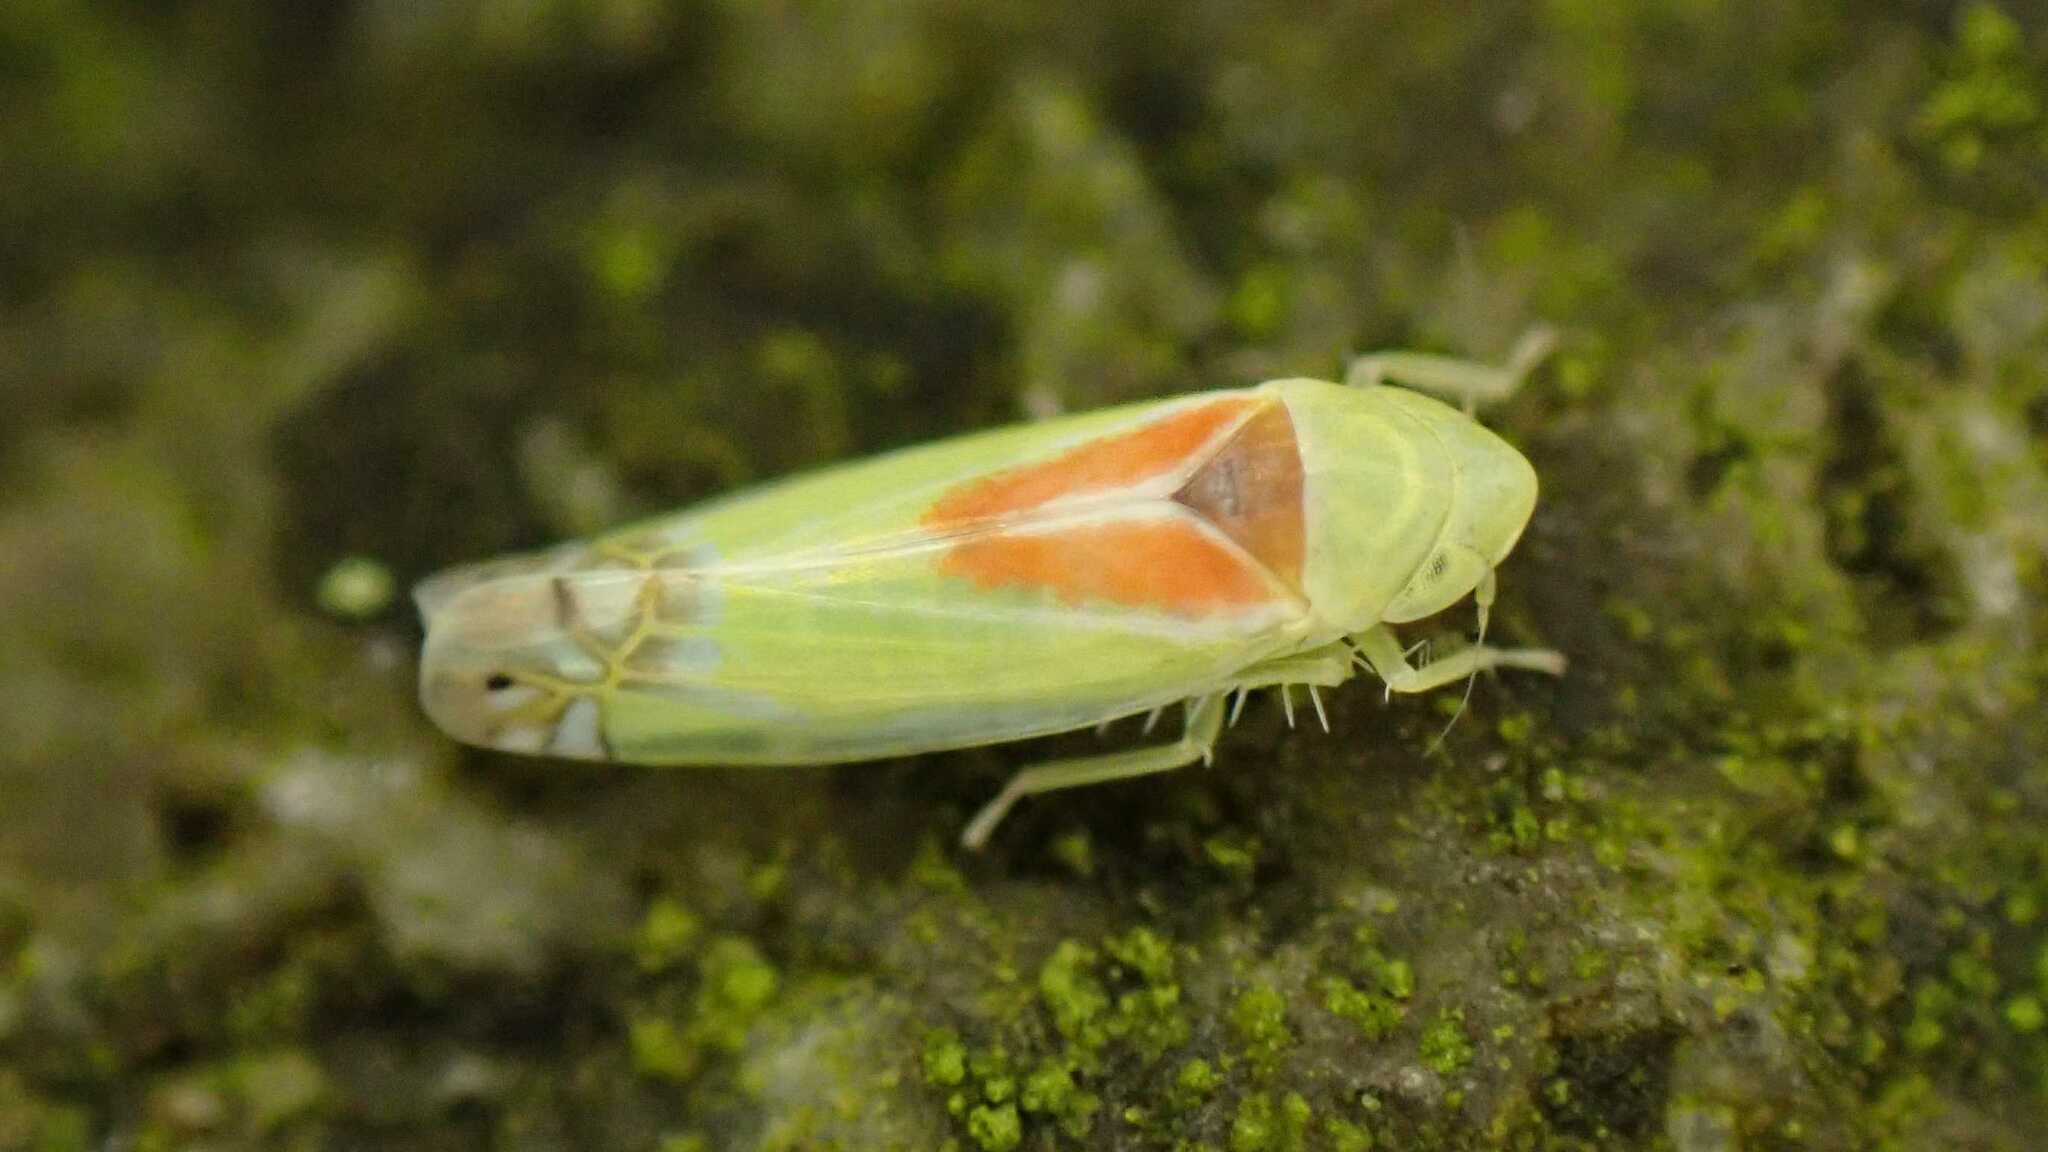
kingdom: Animalia
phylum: Arthropoda
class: Insecta
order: Hemiptera
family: Cicadellidae
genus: Zyginella
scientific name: Zyginella pulchra
